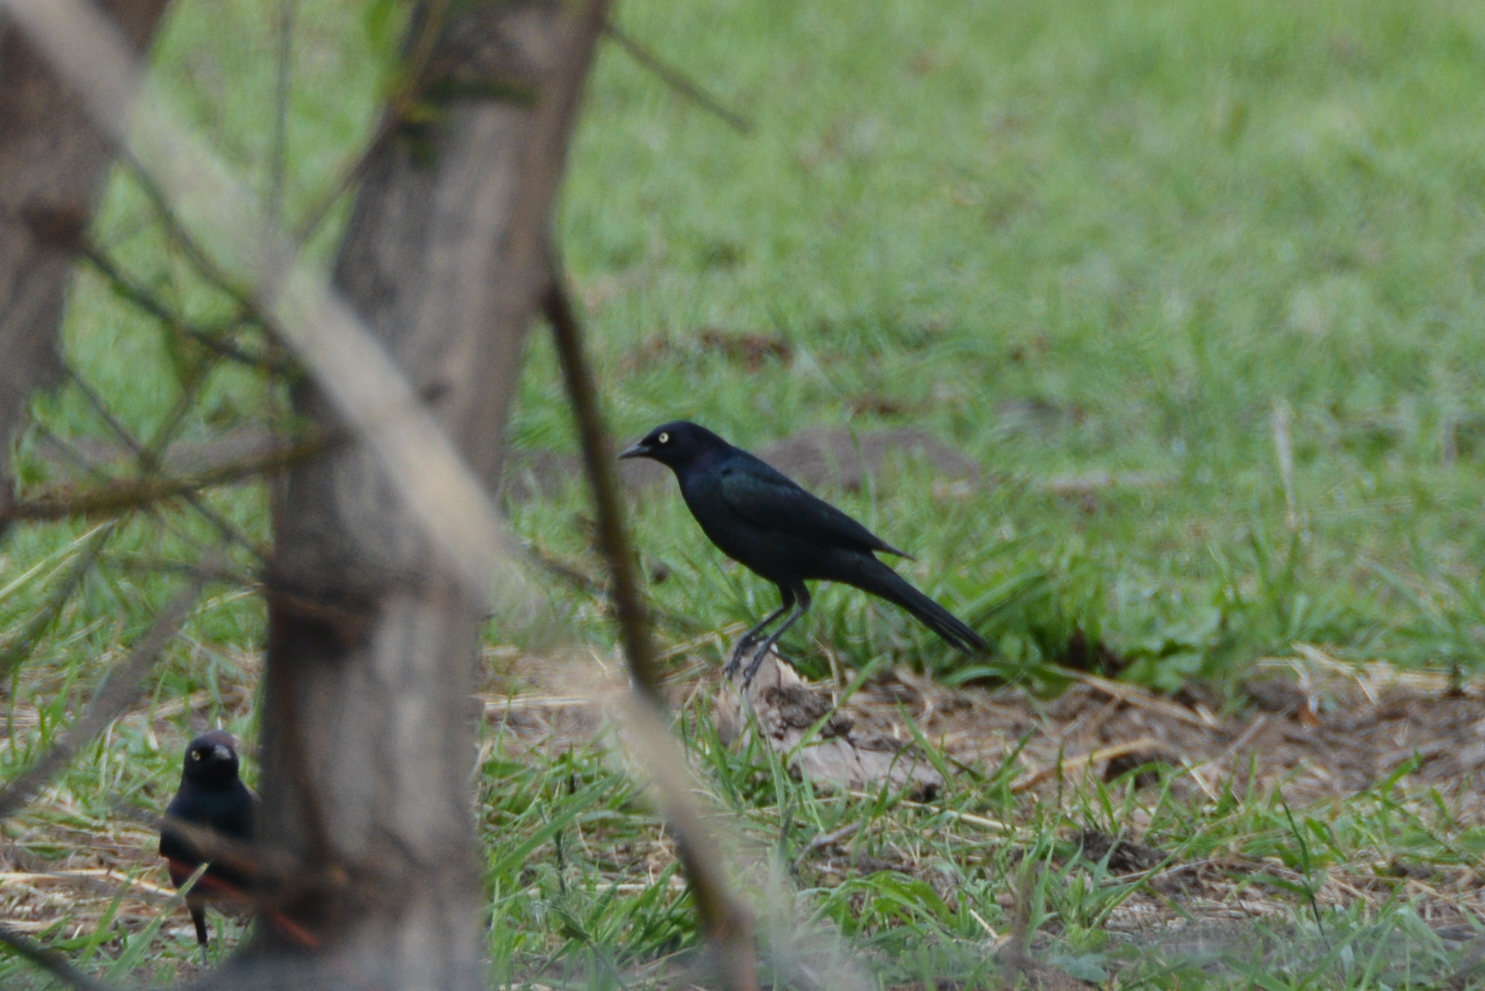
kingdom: Animalia
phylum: Chordata
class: Aves
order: Passeriformes
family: Icteridae
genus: Euphagus
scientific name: Euphagus cyanocephalus
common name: Brewer's blackbird
